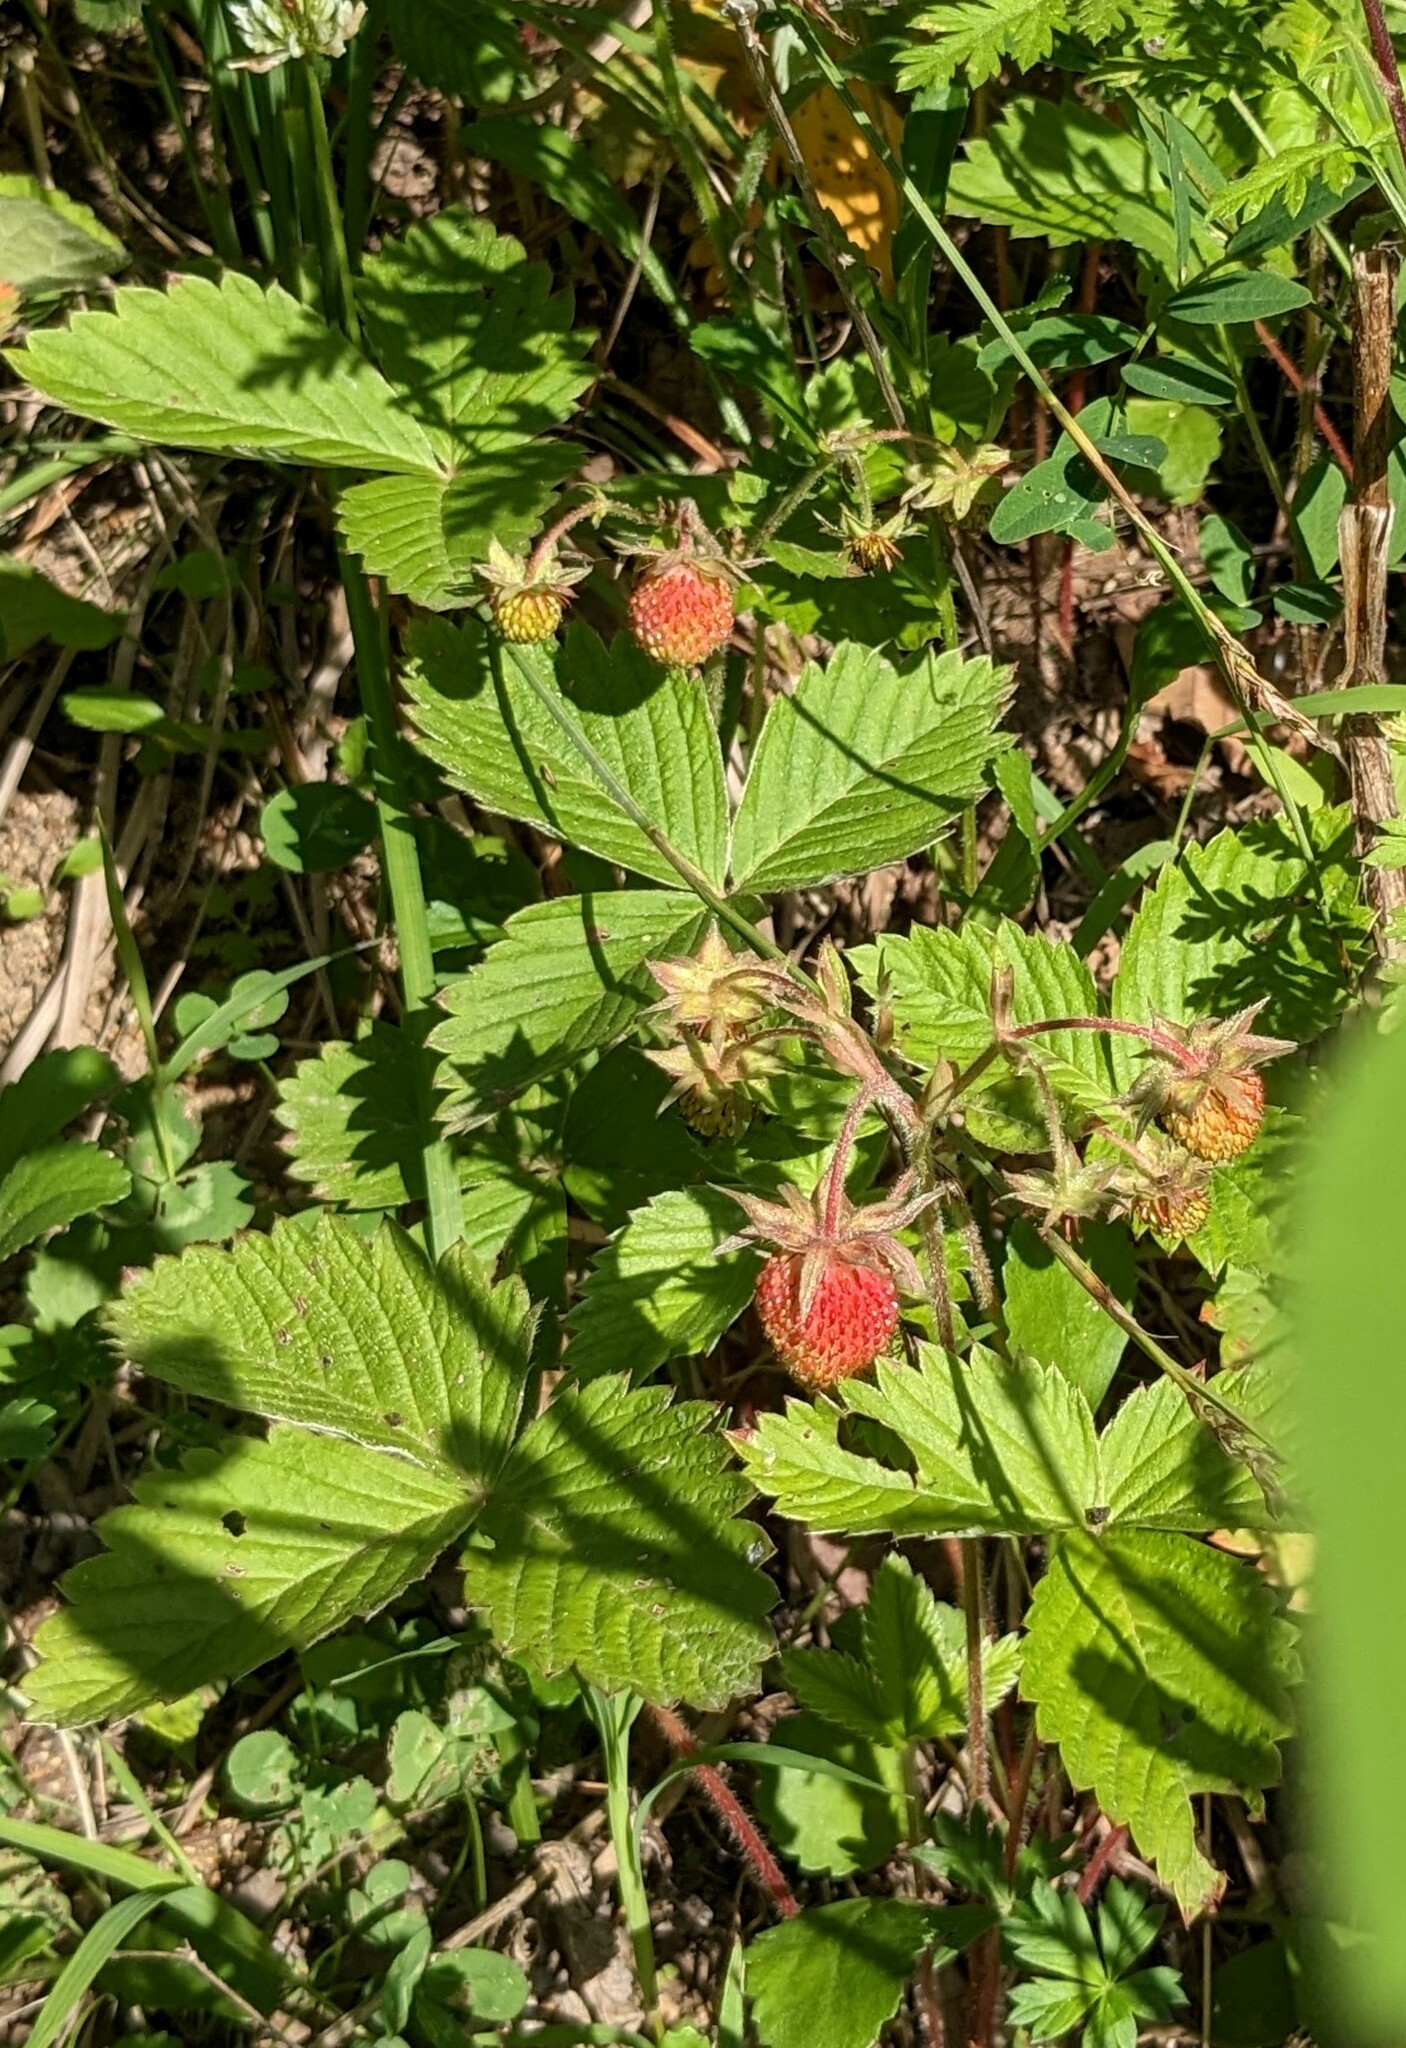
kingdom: Plantae
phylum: Tracheophyta
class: Magnoliopsida
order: Rosales
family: Rosaceae
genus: Fragaria
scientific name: Fragaria orientalis
